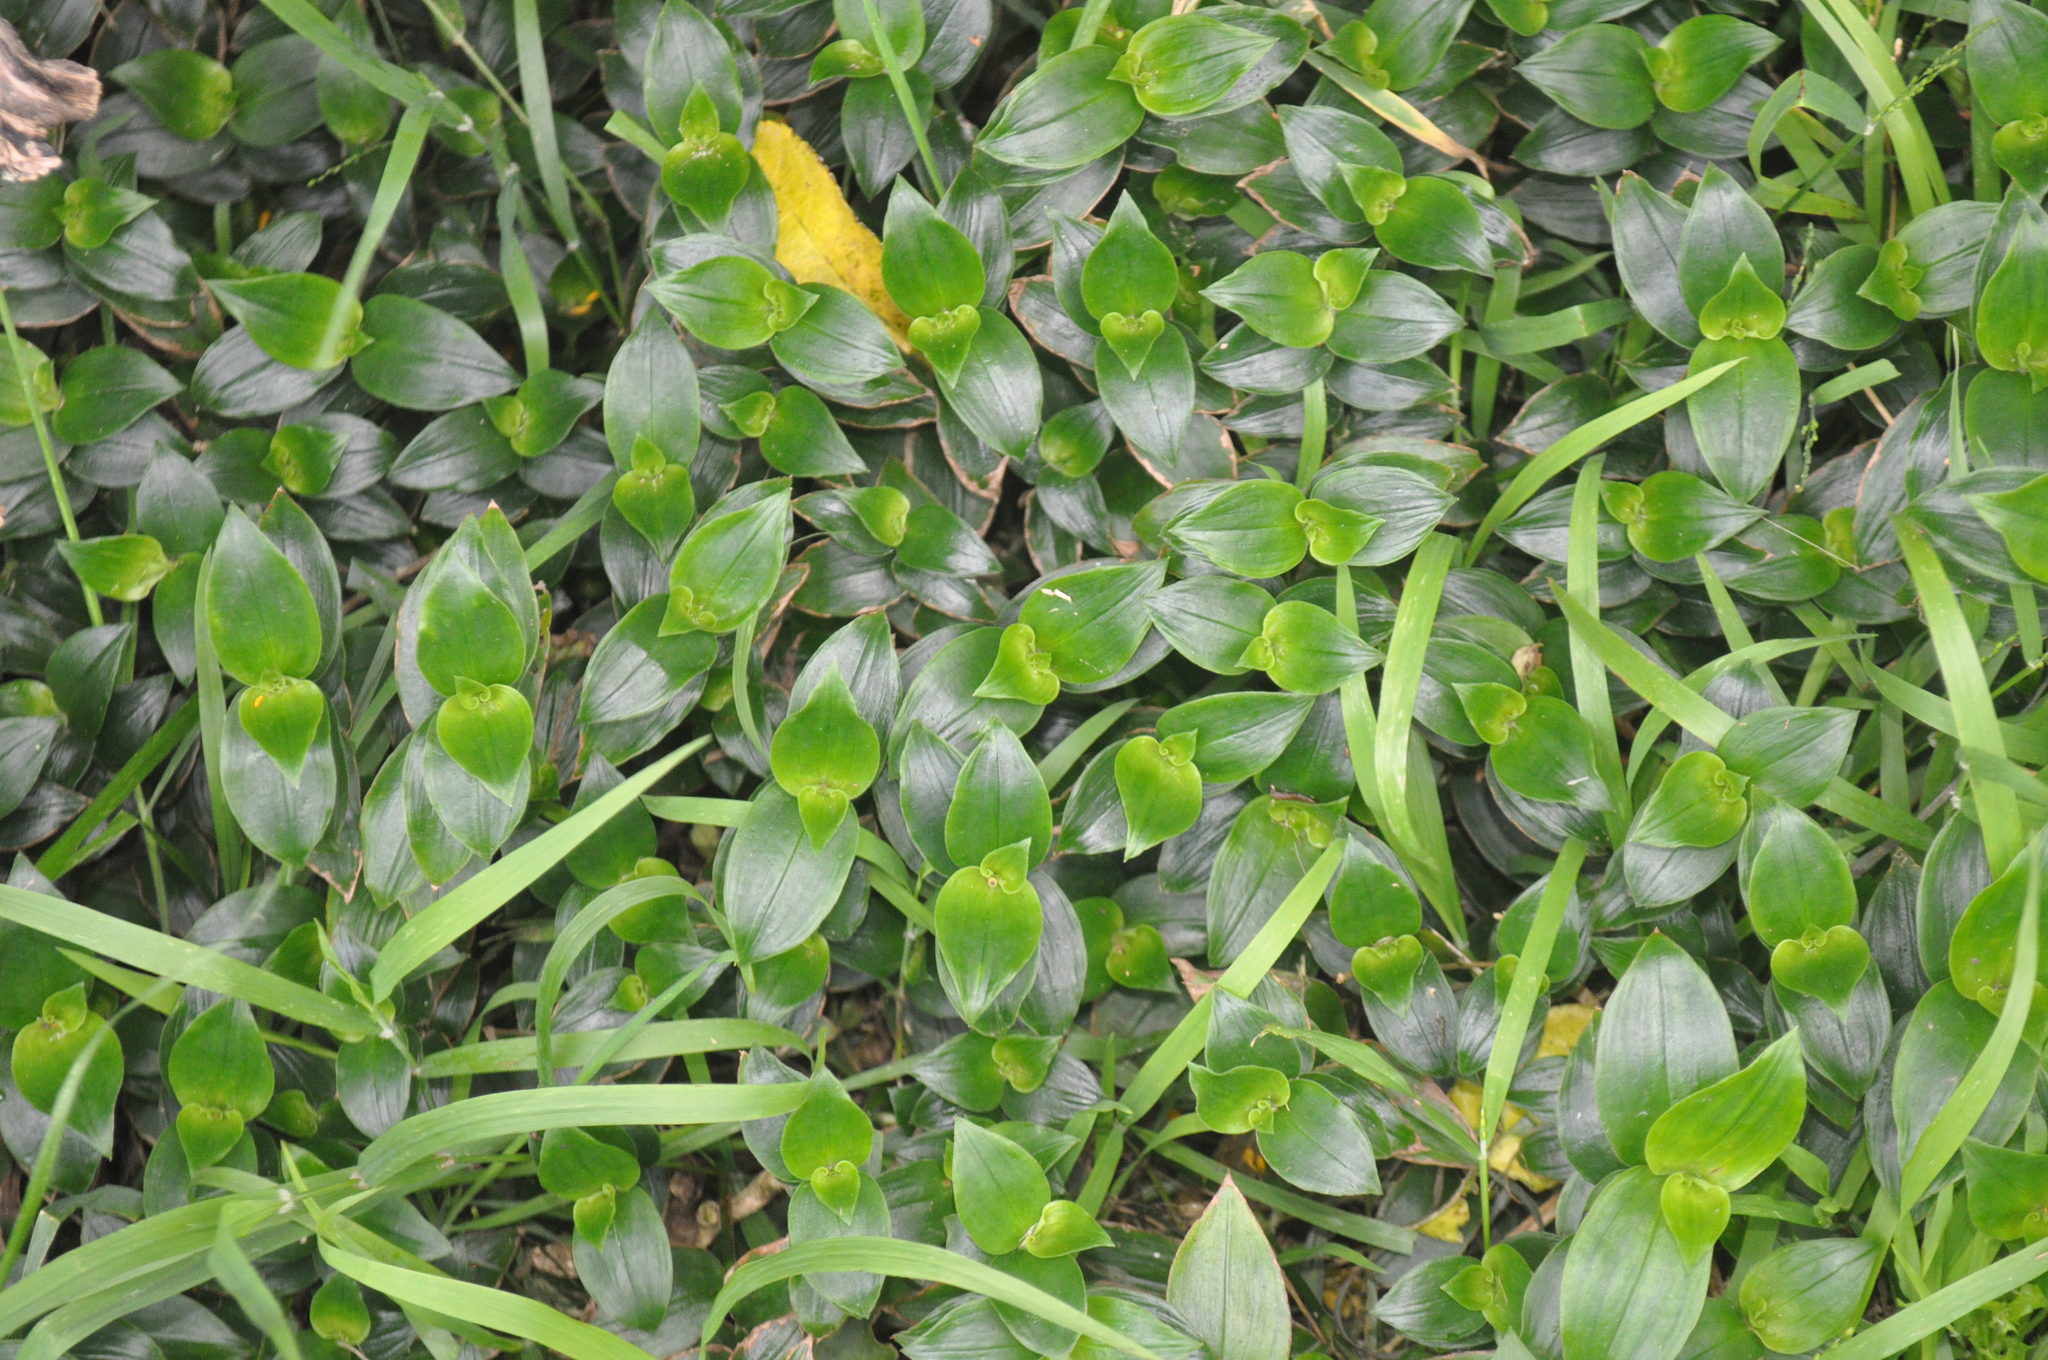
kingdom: Plantae
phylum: Tracheophyta
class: Liliopsida
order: Commelinales
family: Commelinaceae
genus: Tradescantia
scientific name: Tradescantia fluminensis
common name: Wandering-jew
